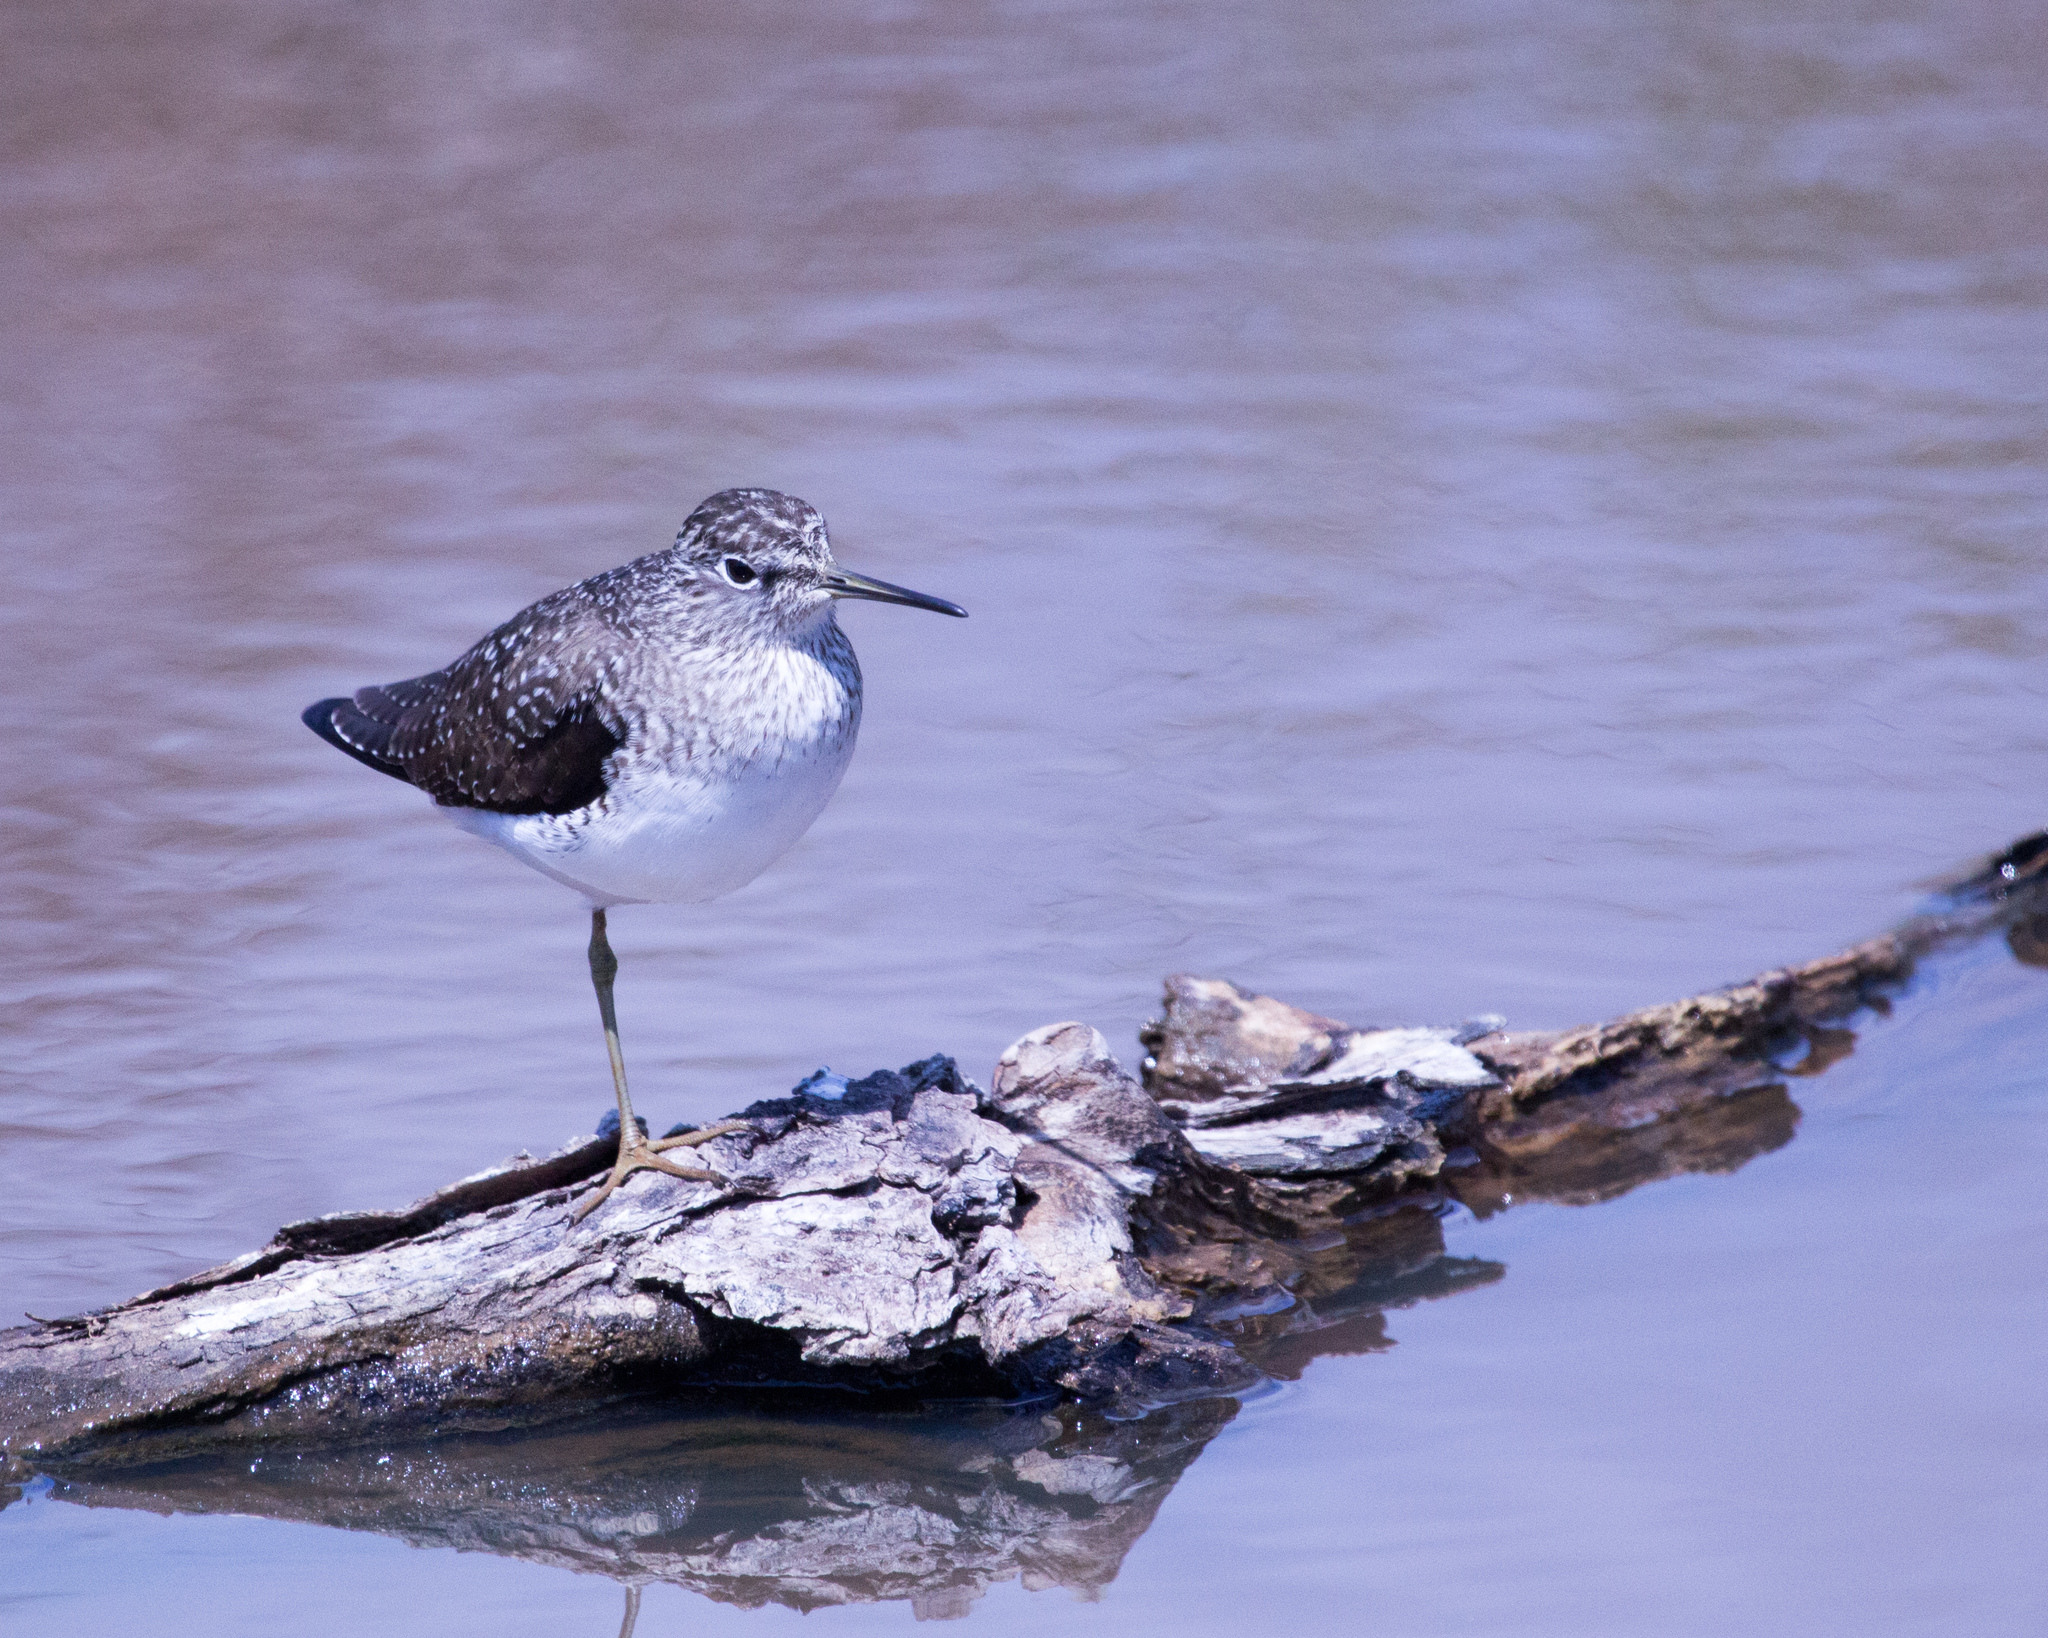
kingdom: Animalia
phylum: Chordata
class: Aves
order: Charadriiformes
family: Scolopacidae
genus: Tringa
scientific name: Tringa solitaria
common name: Solitary sandpiper
